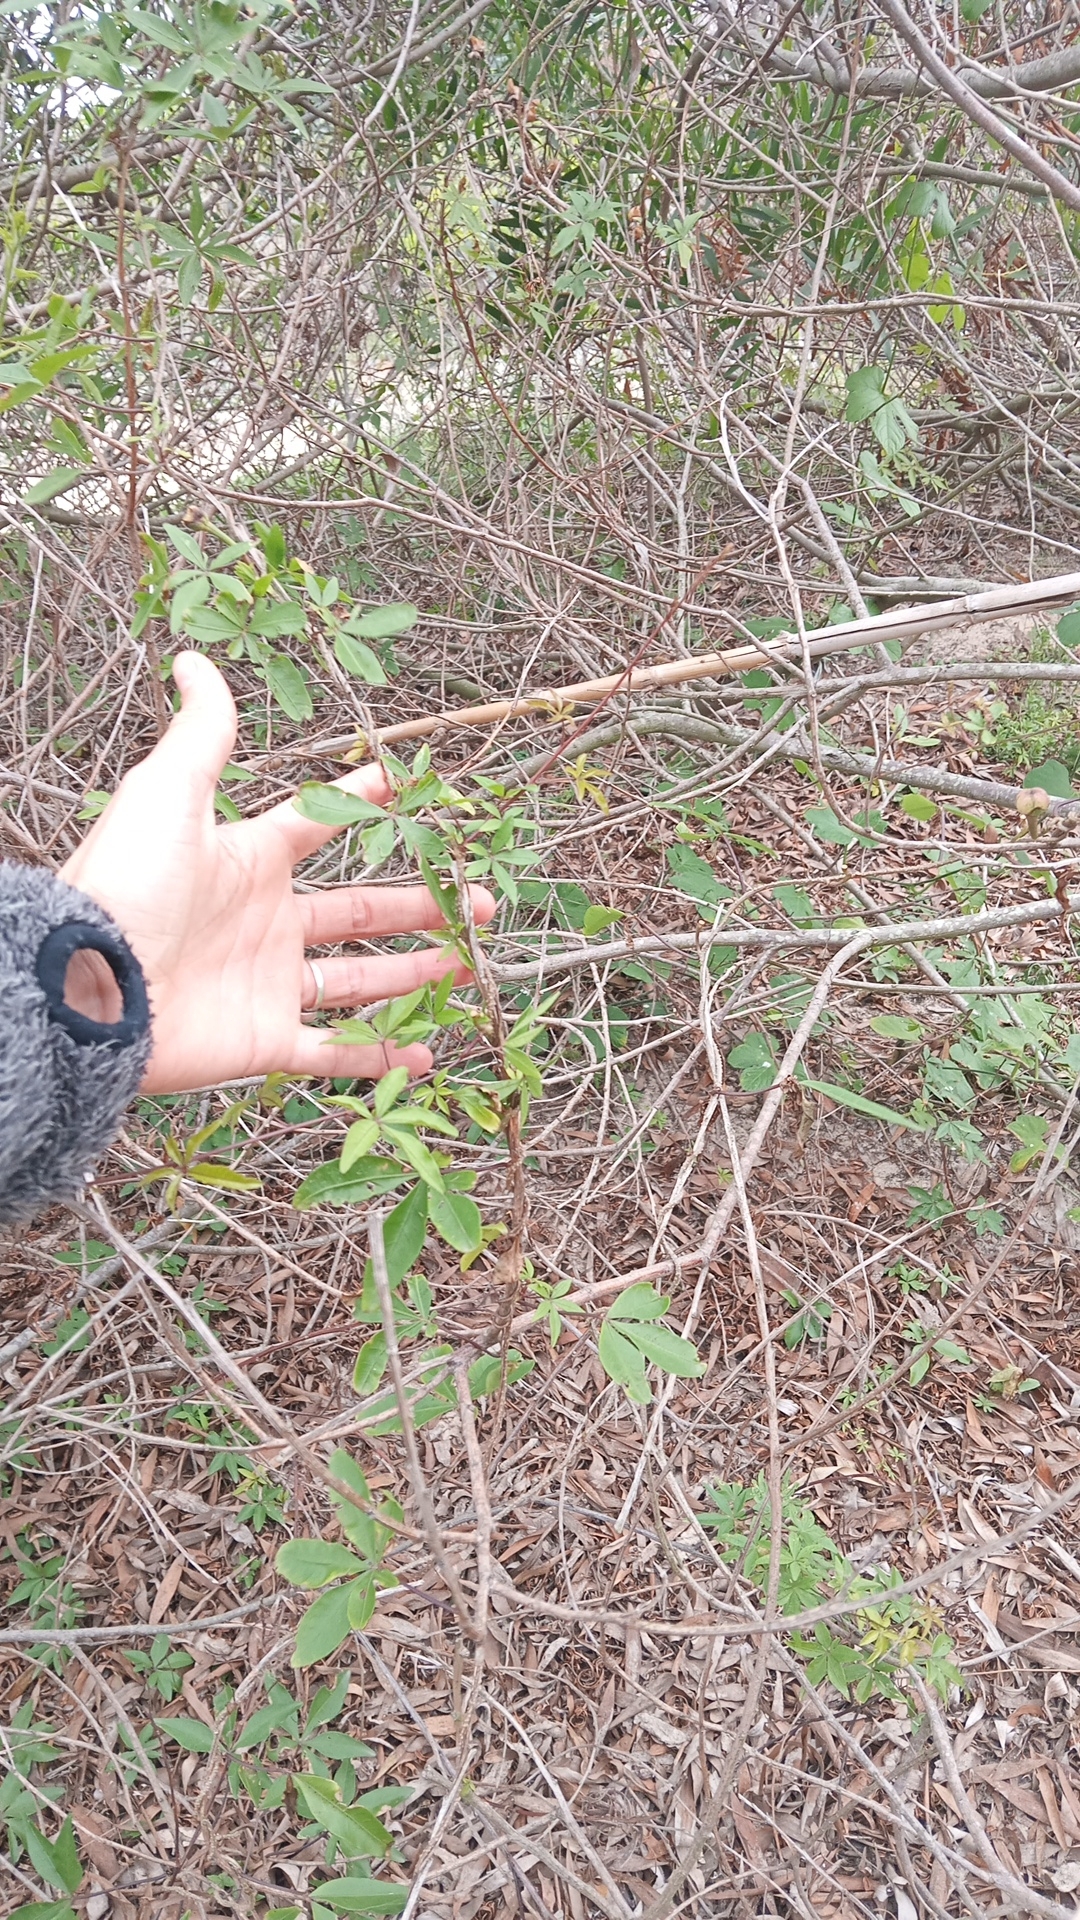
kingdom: Plantae
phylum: Tracheophyta
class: Magnoliopsida
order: Solanales
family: Convolvulaceae
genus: Ipomoea
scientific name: Ipomoea cairica
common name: Mile a minute vine
